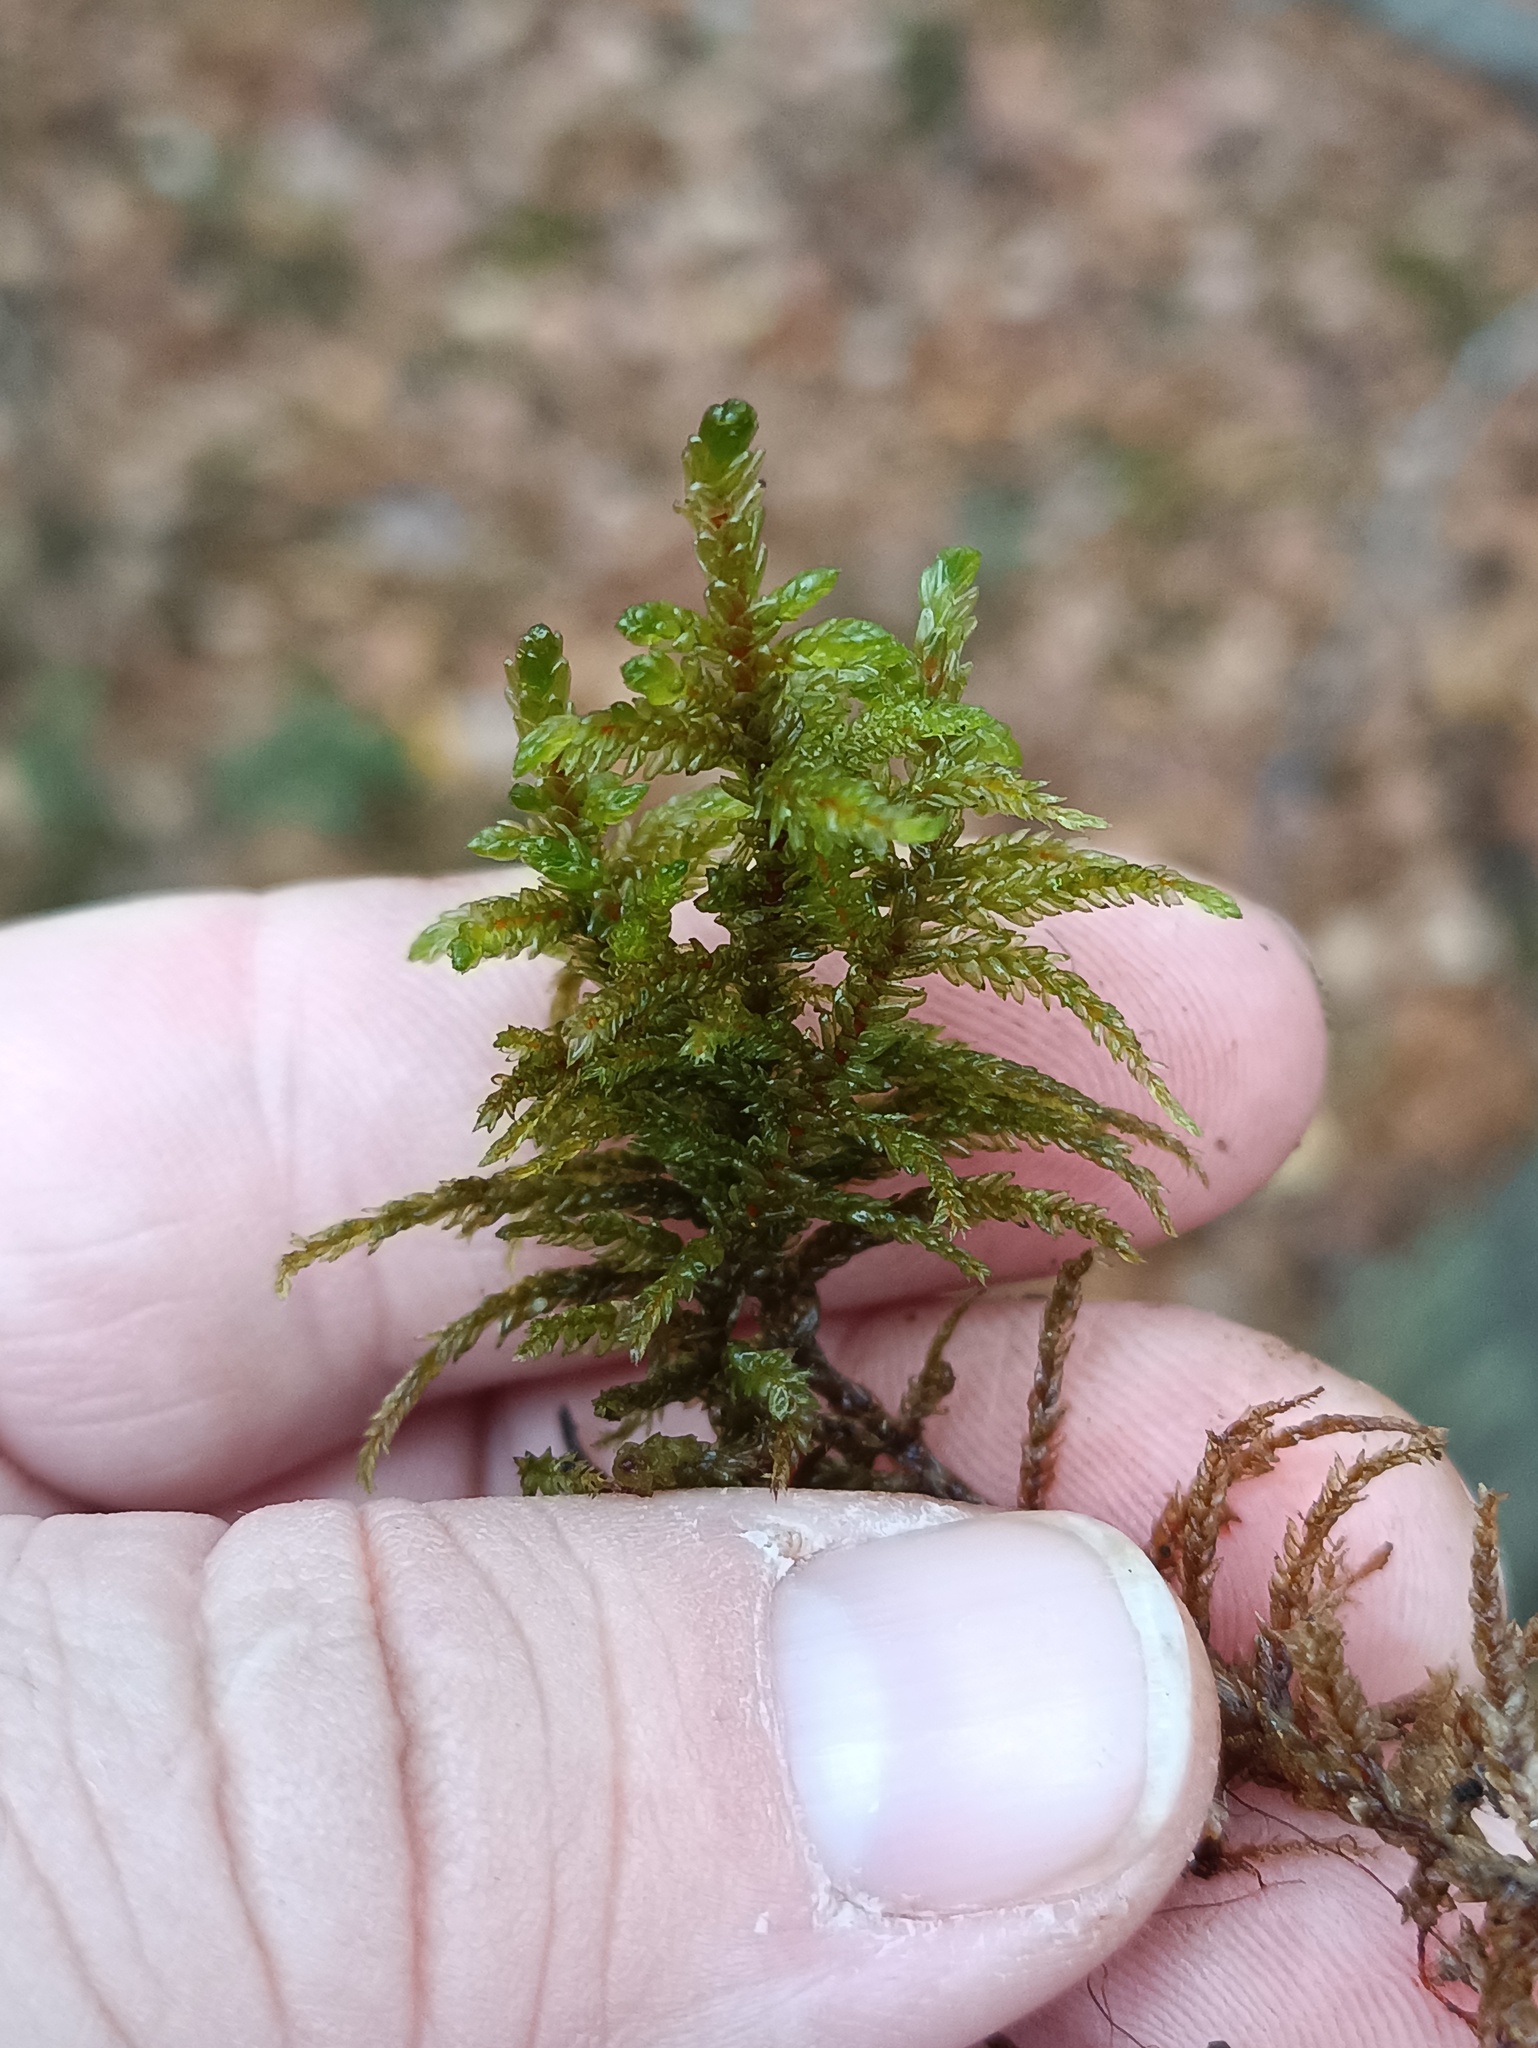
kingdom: Plantae
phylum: Bryophyta
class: Bryopsida
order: Hypnales
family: Hylocomiaceae
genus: Pleurozium
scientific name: Pleurozium schreberi
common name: Red-stemmed feather moss
